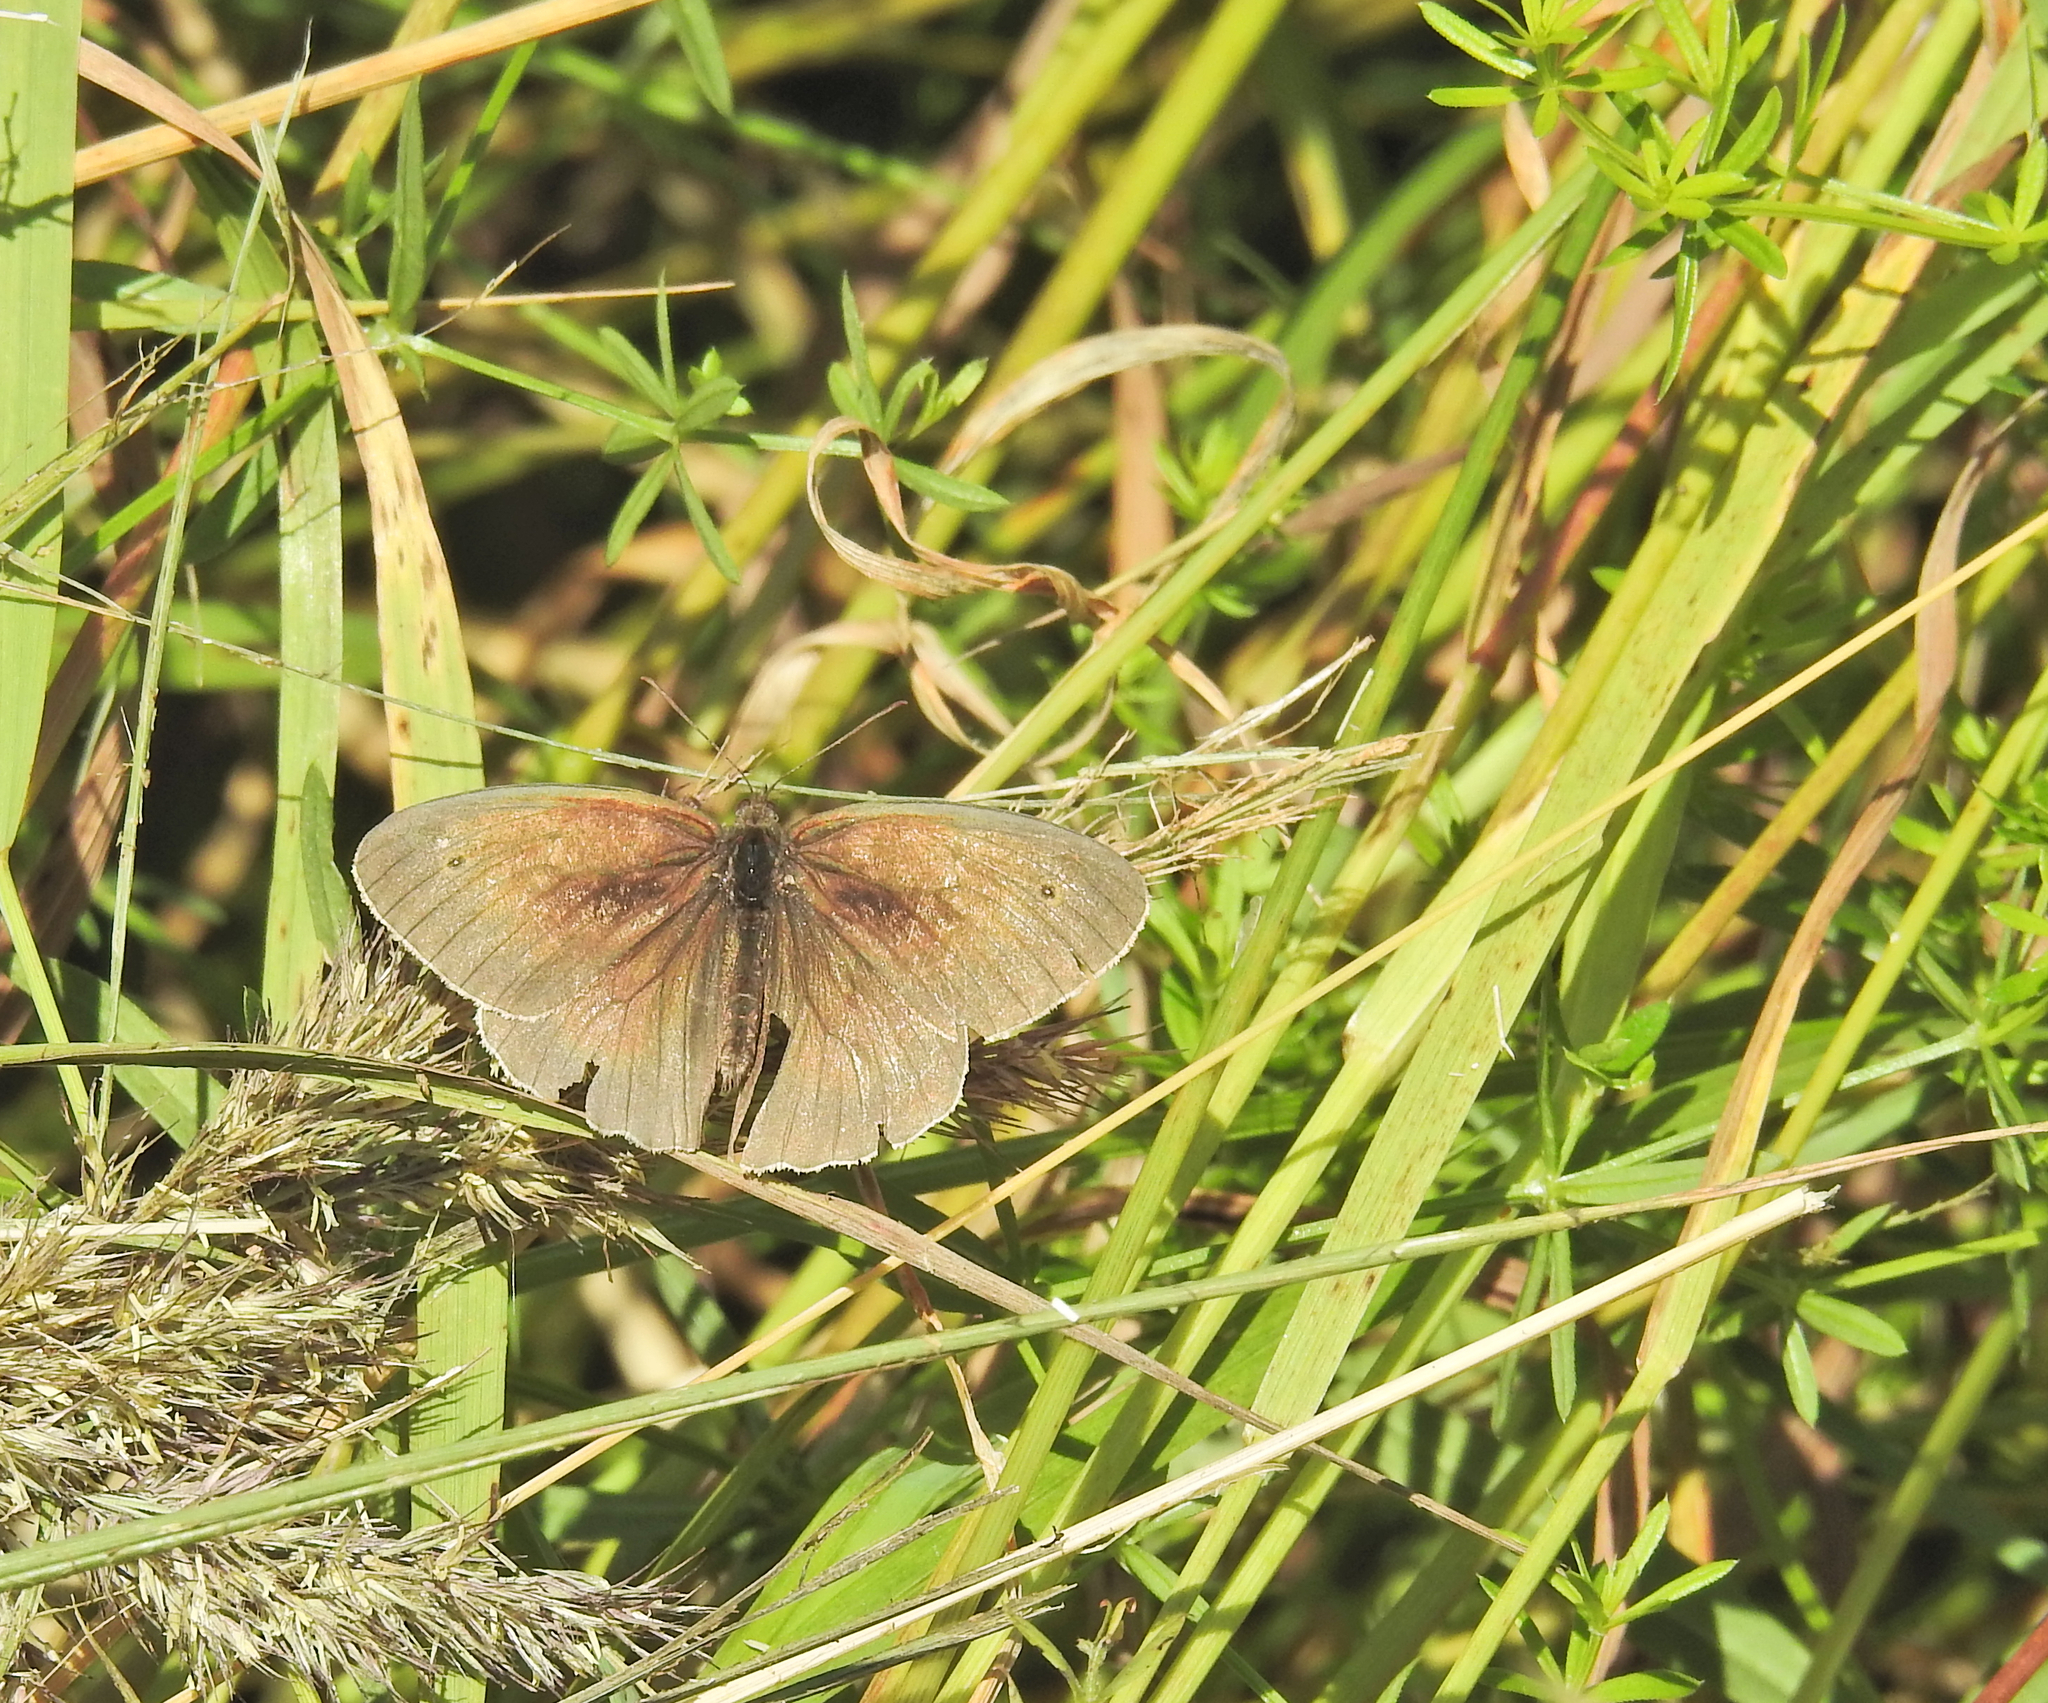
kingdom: Animalia
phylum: Arthropoda
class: Insecta
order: Lepidoptera
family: Nymphalidae
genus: Maniola
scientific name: Maniola jurtina
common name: Meadow brown
